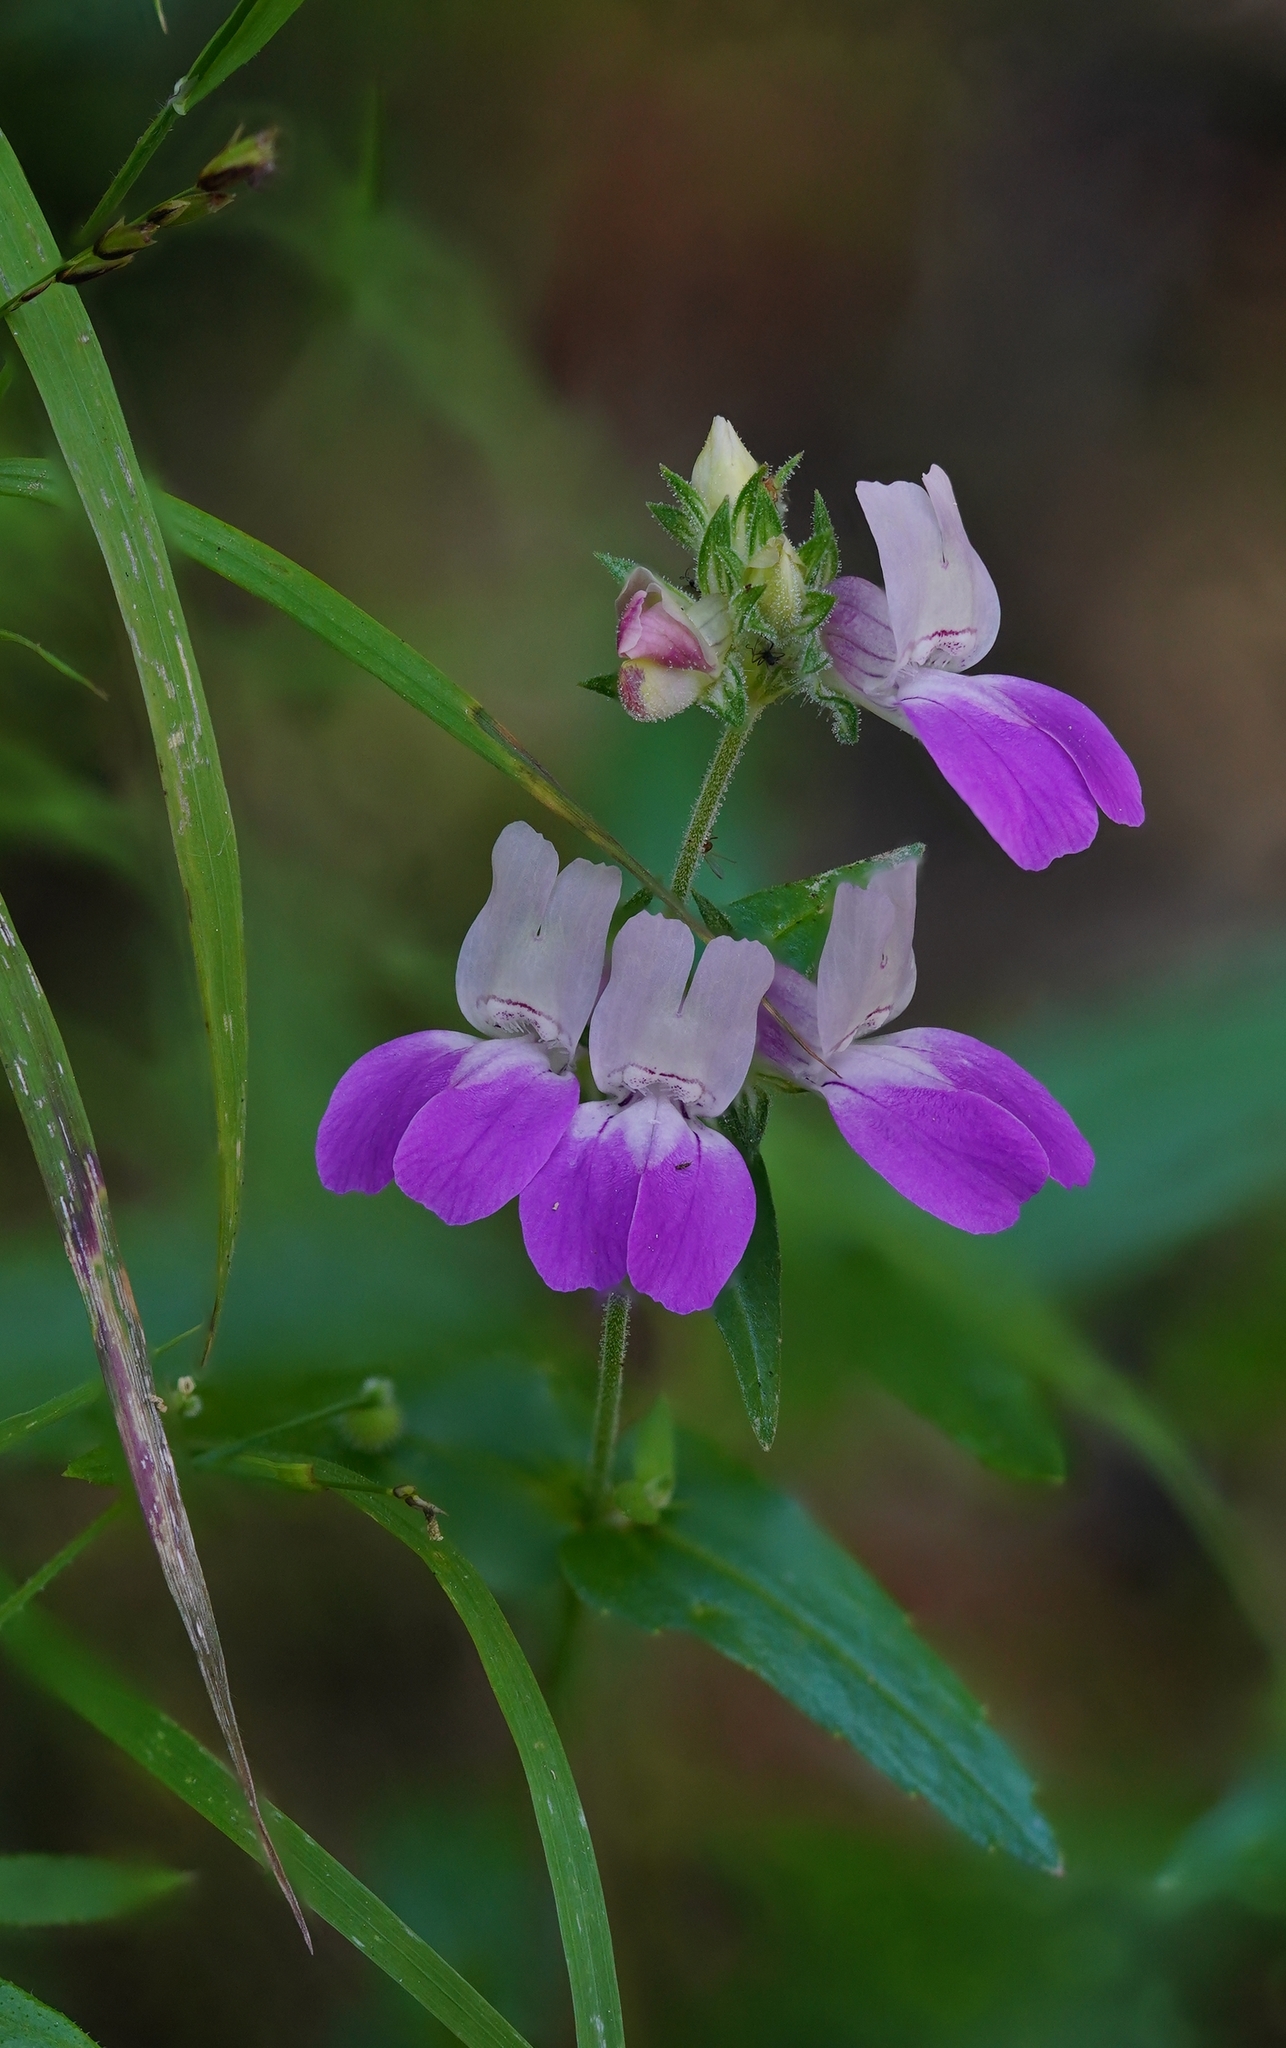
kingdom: Plantae
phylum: Tracheophyta
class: Magnoliopsida
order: Lamiales
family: Plantaginaceae
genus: Collinsia
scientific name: Collinsia heterophylla
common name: Chinese-houses
